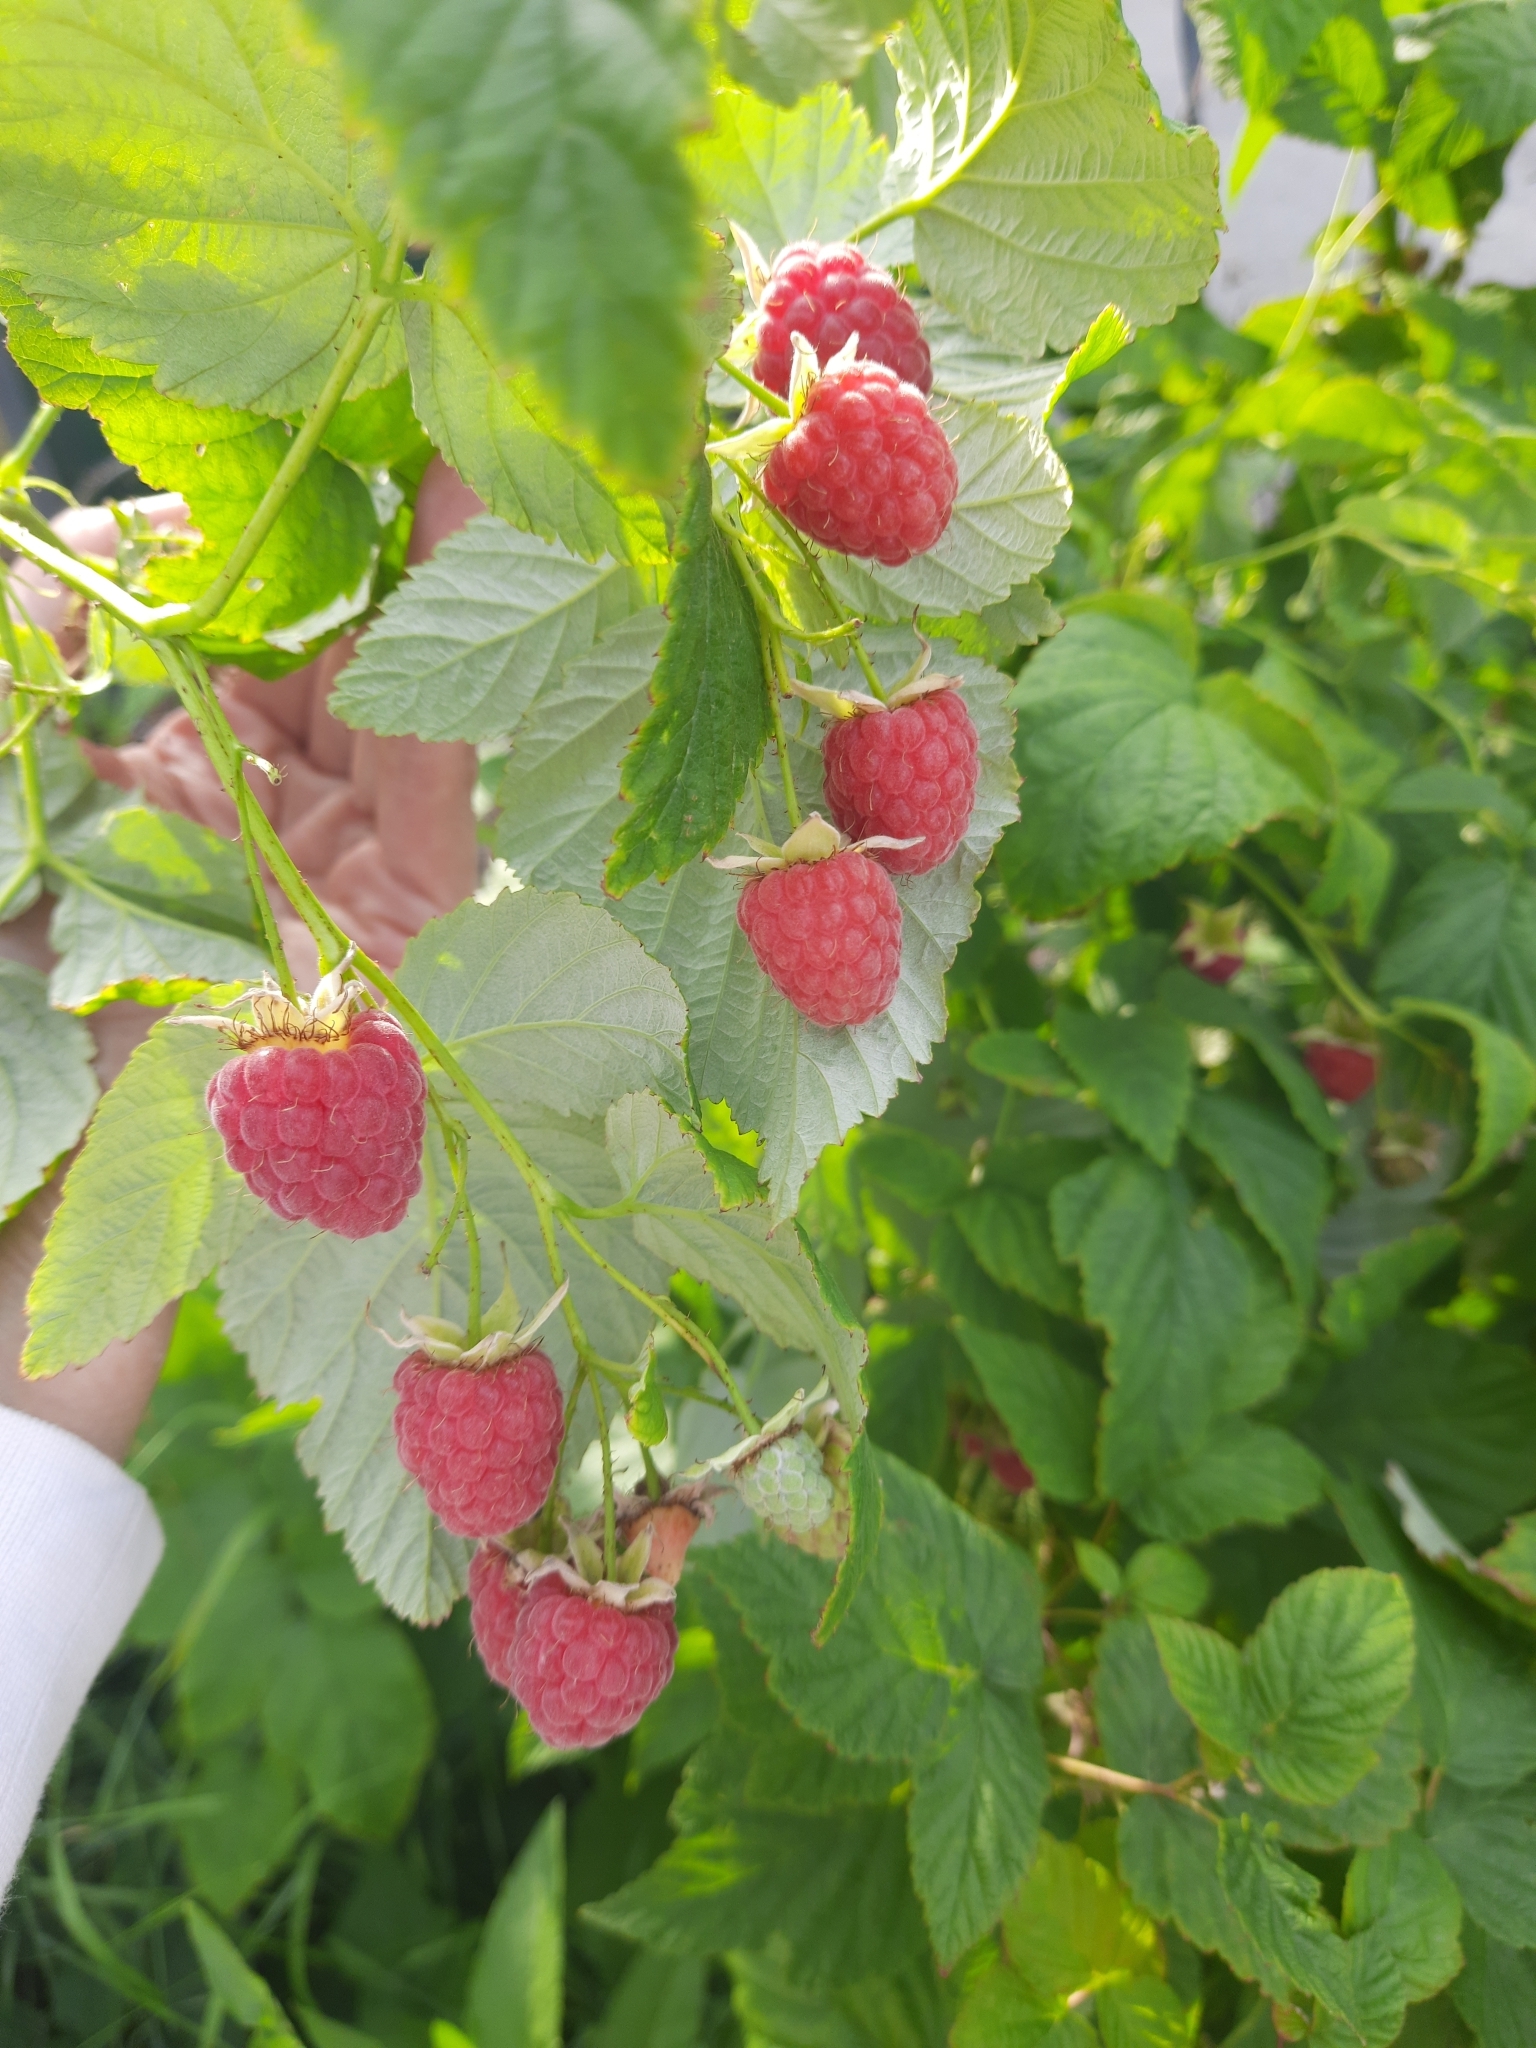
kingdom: Plantae
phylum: Tracheophyta
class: Magnoliopsida
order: Rosales
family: Rosaceae
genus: Rubus
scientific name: Rubus idaeus
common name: Raspberry
